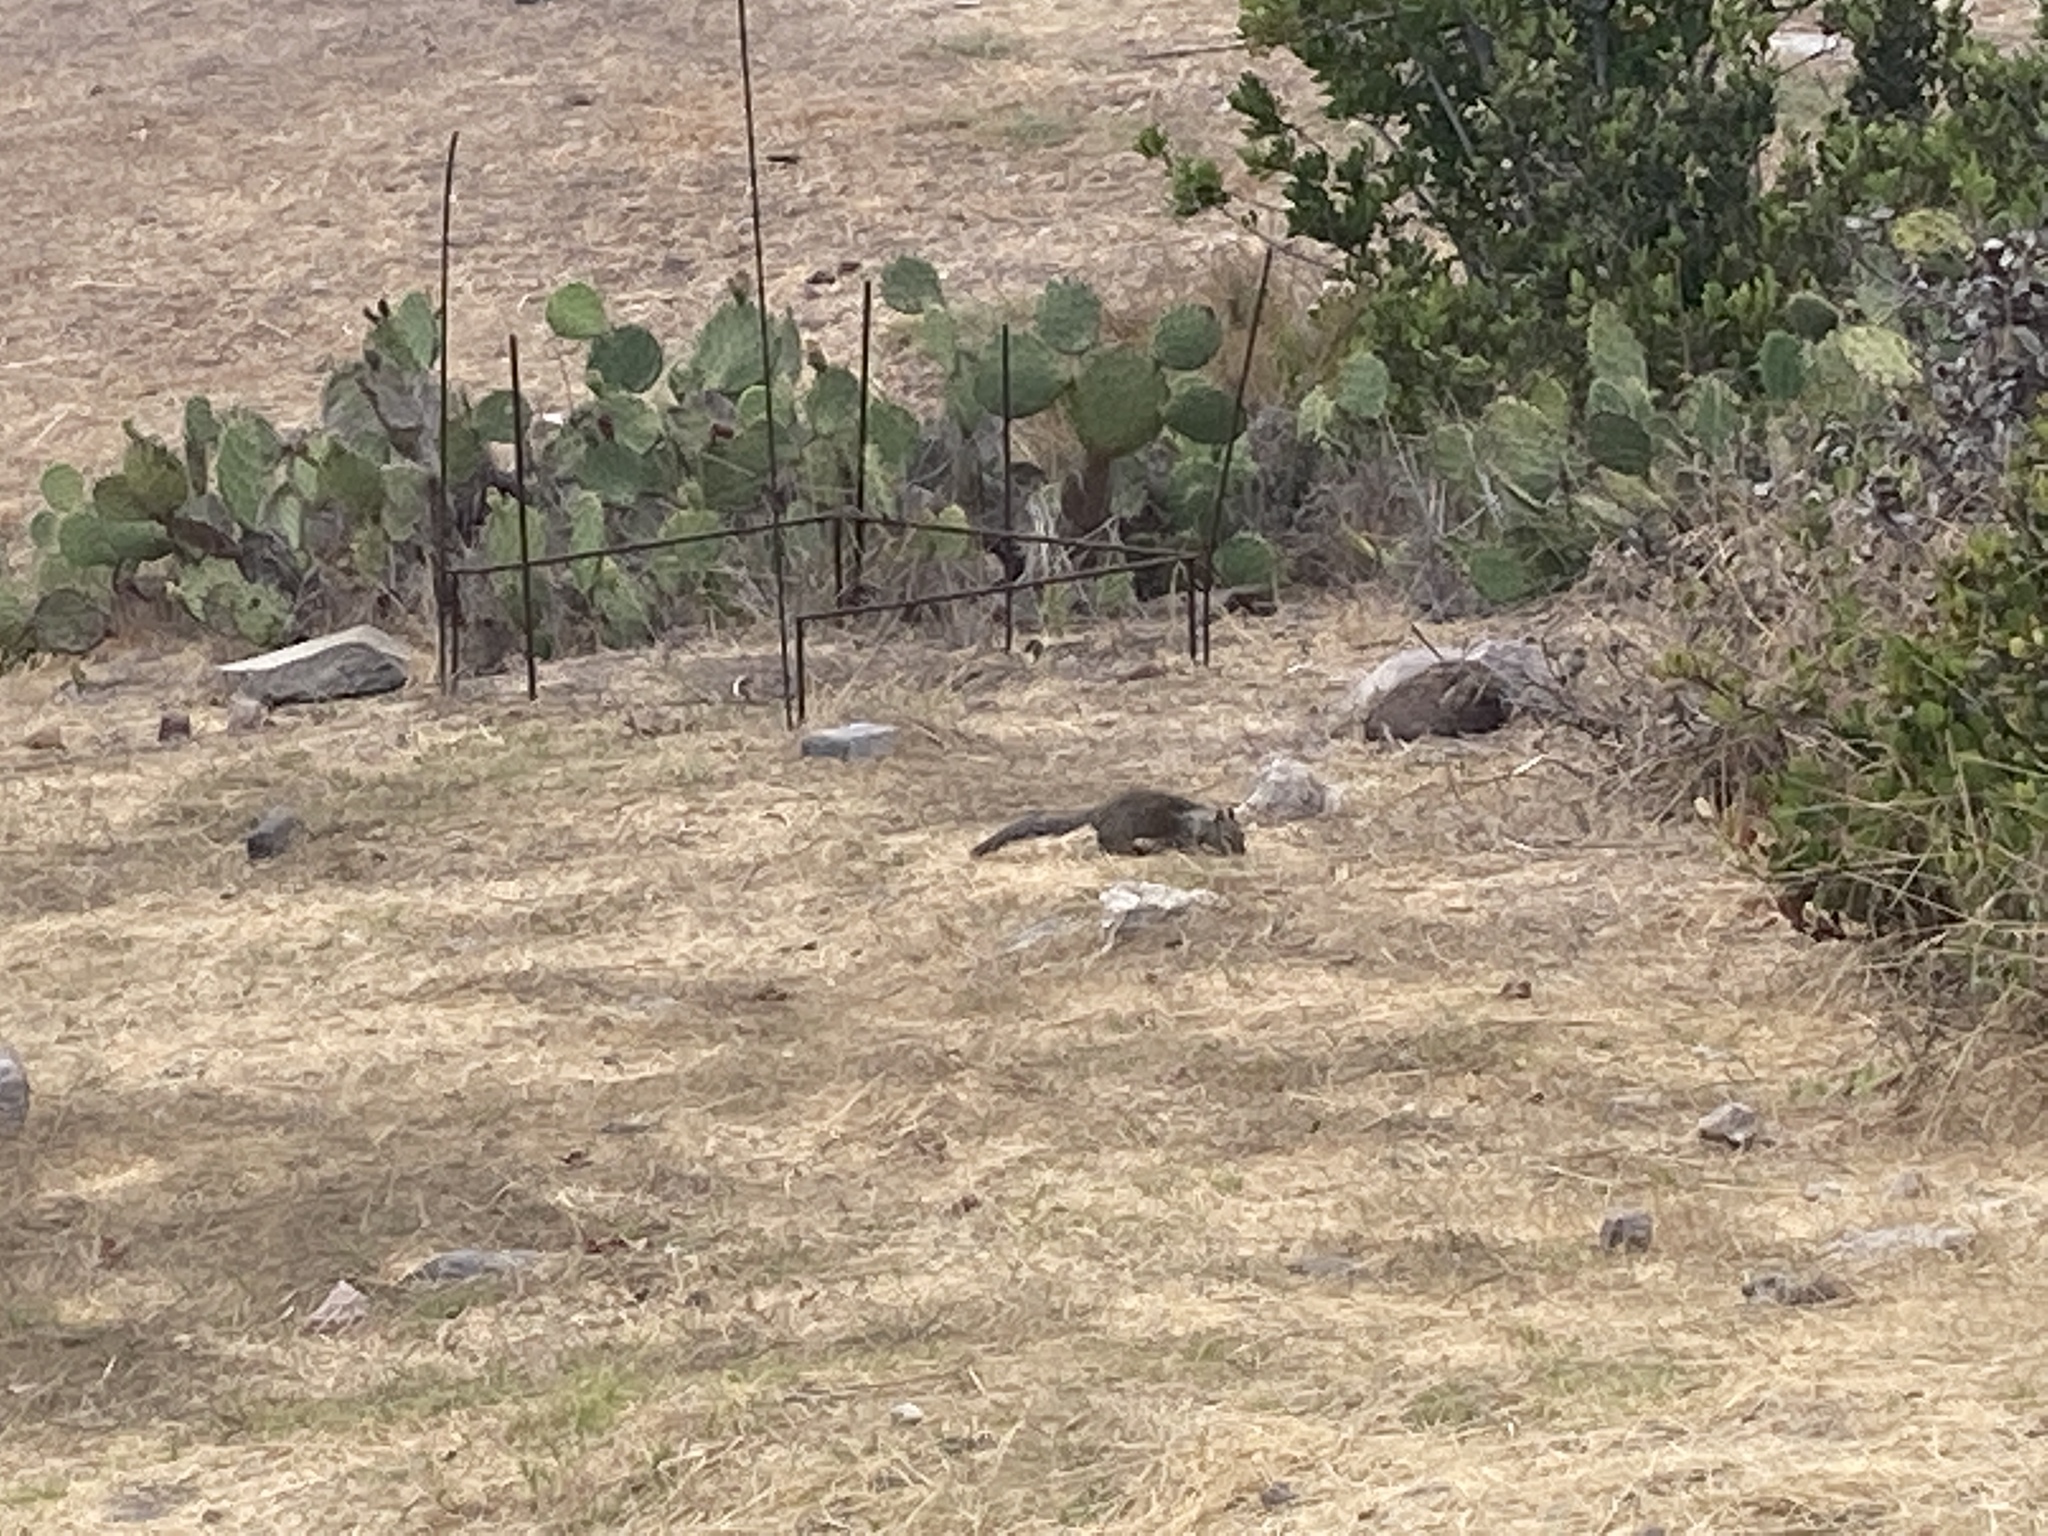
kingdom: Animalia
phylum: Chordata
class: Mammalia
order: Rodentia
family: Sciuridae
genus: Otospermophilus
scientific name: Otospermophilus beecheyi
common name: California ground squirrel
